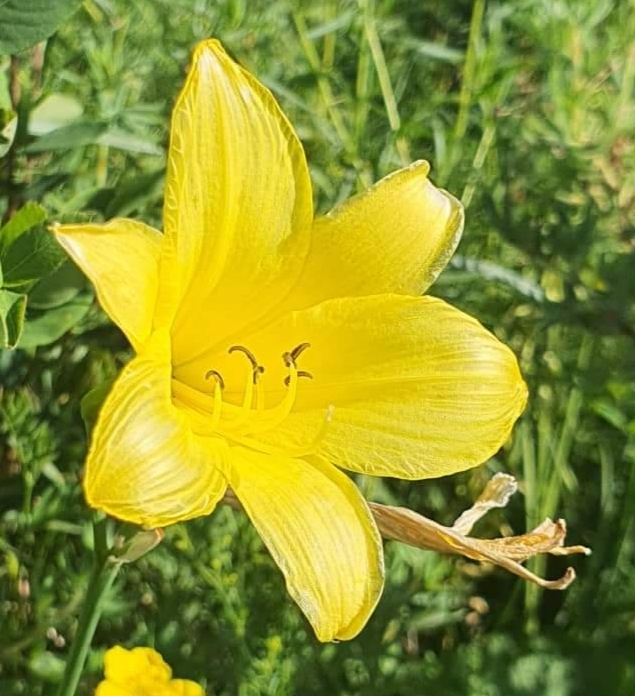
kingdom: Plantae
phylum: Tracheophyta
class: Liliopsida
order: Asparagales
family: Asphodelaceae
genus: Hemerocallis
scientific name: Hemerocallis lilioasphodelus
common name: Yellow day-lily
